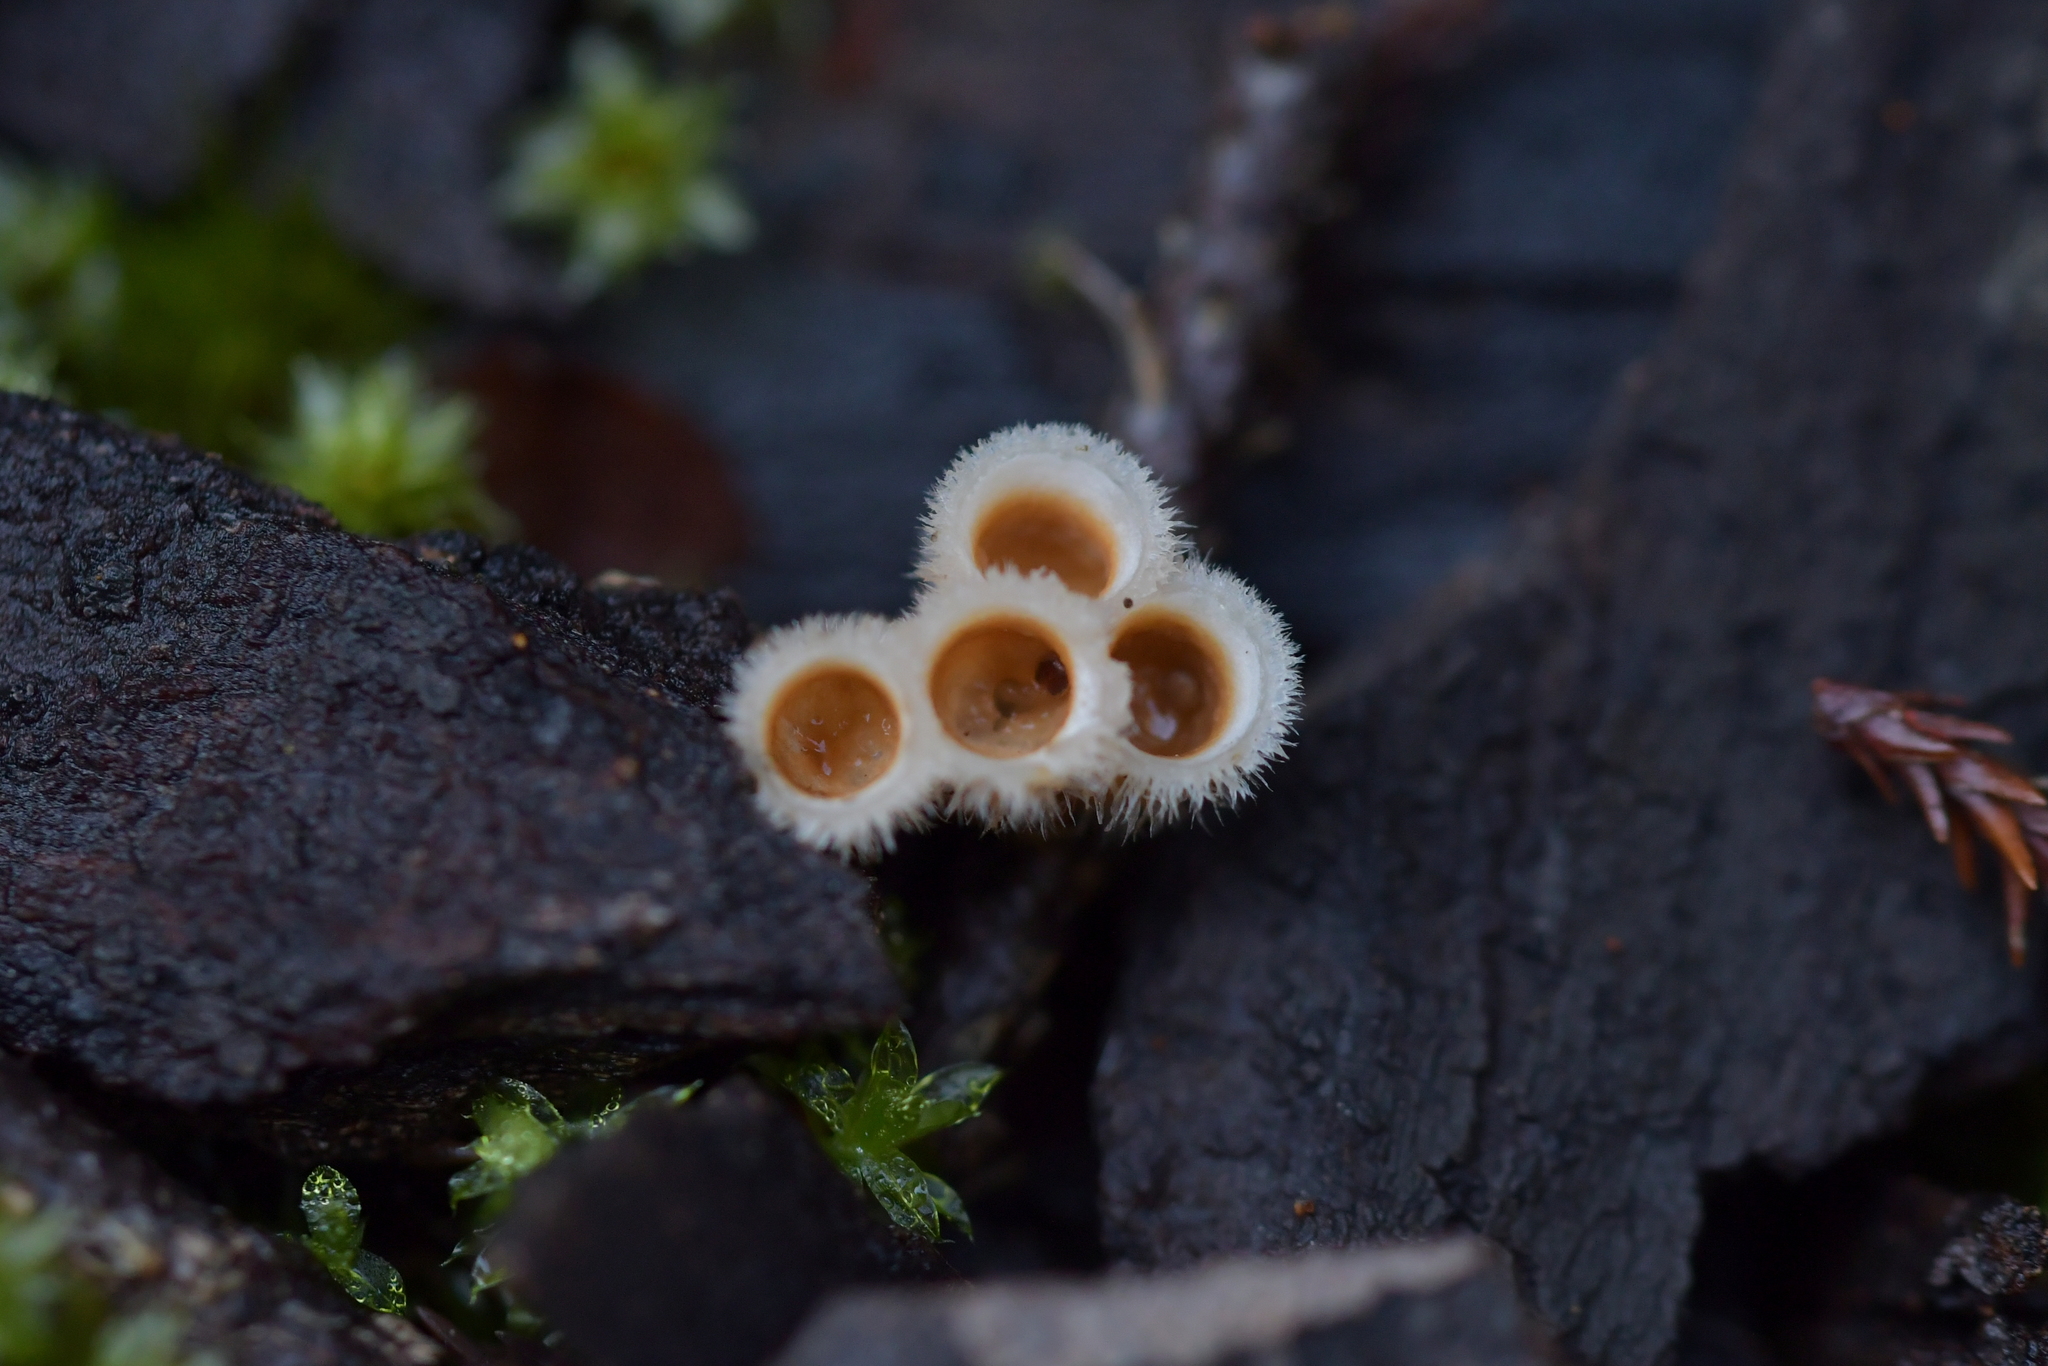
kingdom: Fungi
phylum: Basidiomycota
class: Agaricomycetes
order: Agaricales
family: Agaricaceae
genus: Nidula
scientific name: Nidula niveotomentosa
